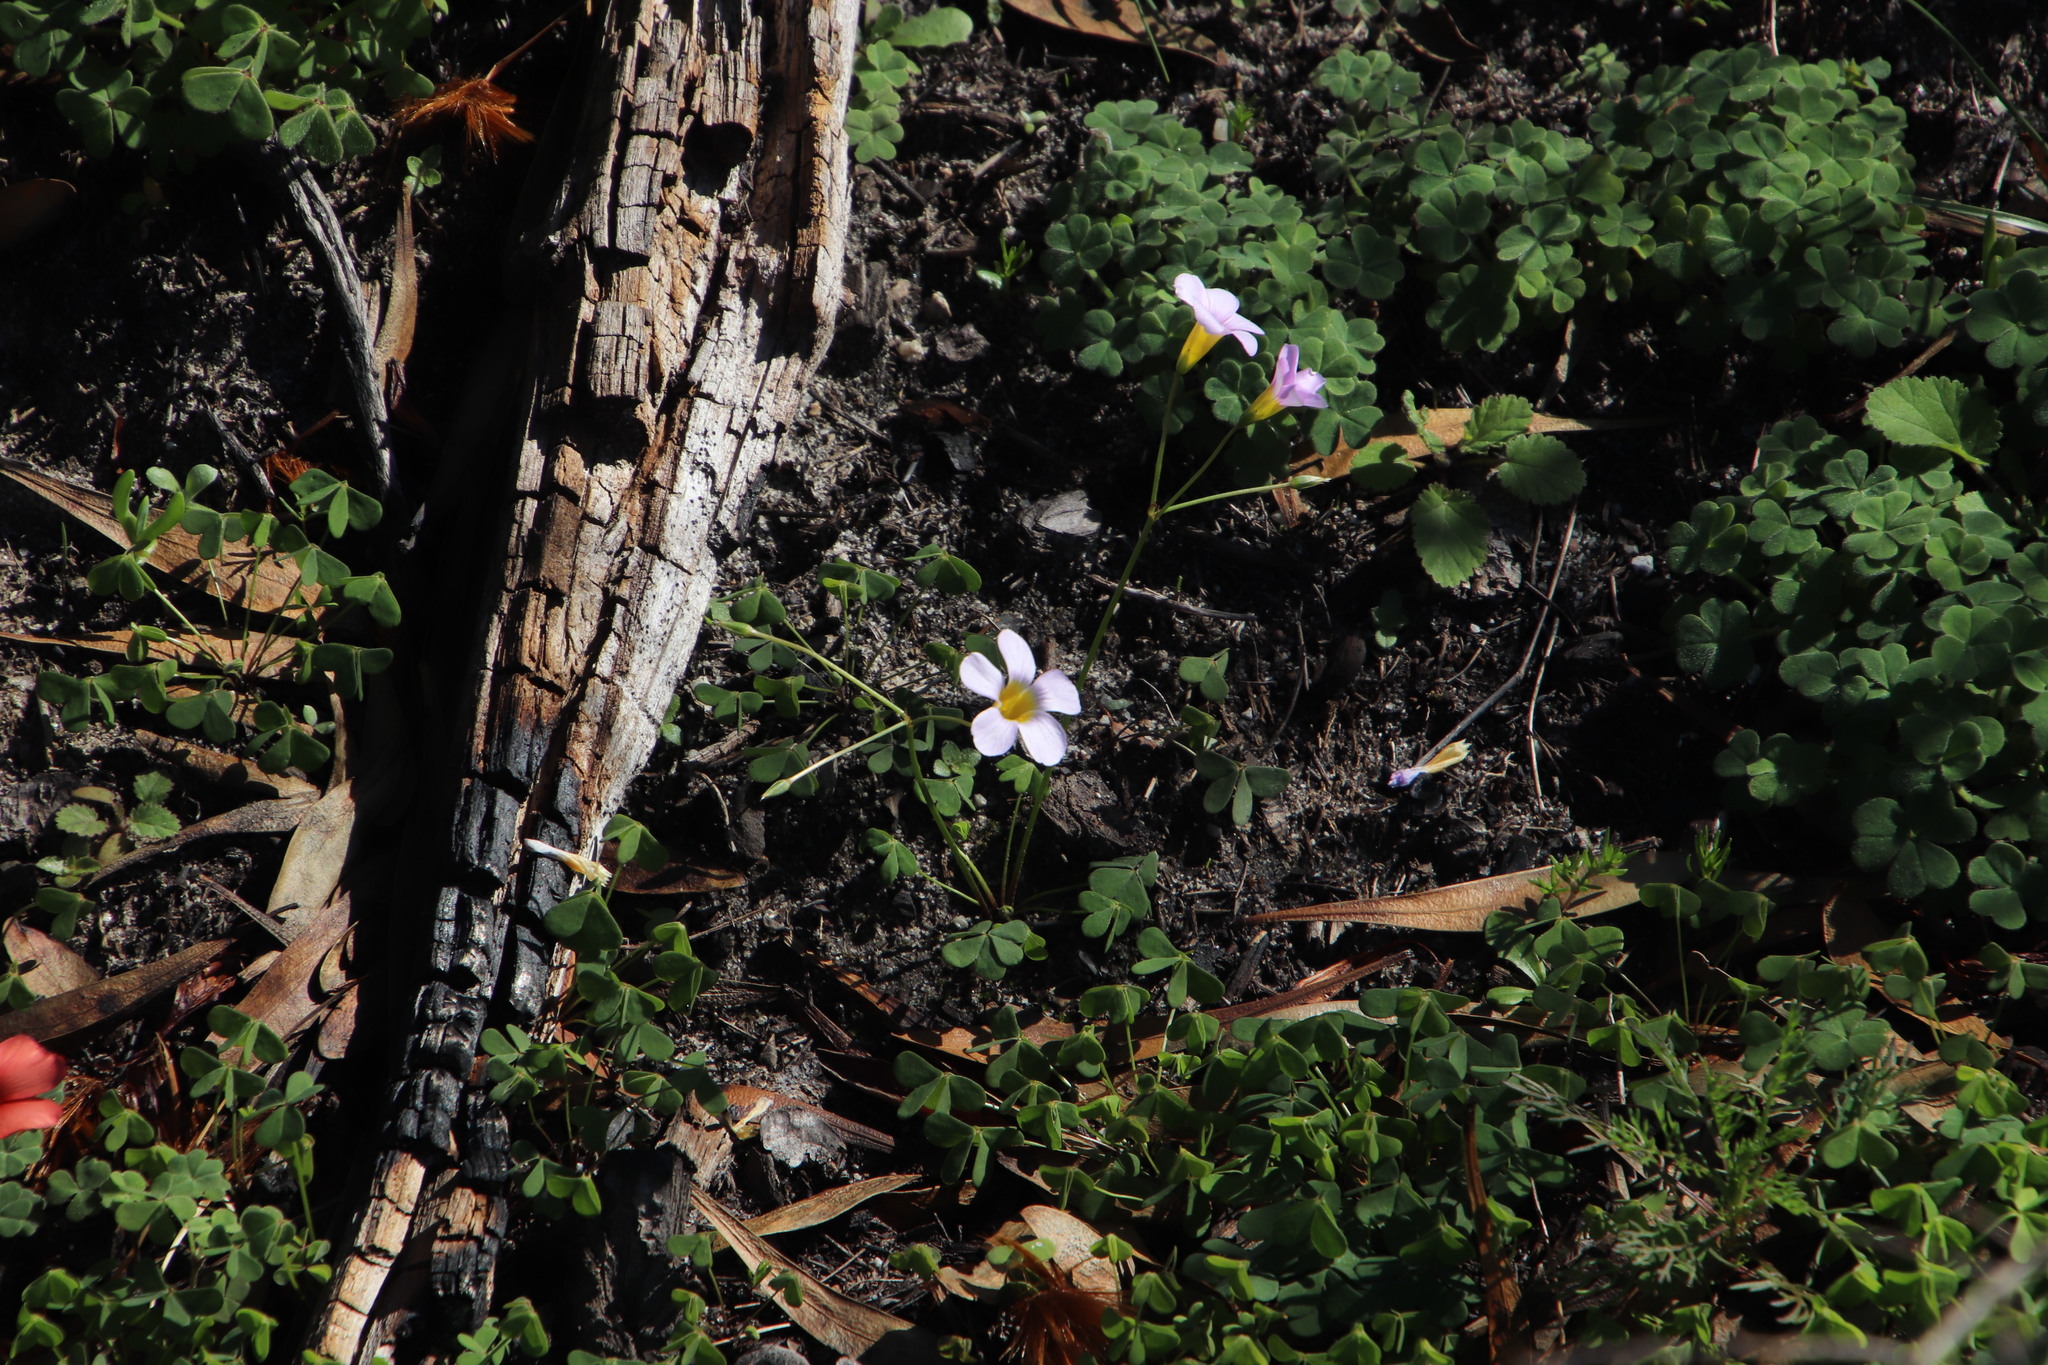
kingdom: Plantae
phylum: Tracheophyta
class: Magnoliopsida
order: Oxalidales
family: Oxalidaceae
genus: Oxalis
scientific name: Oxalis caprina
